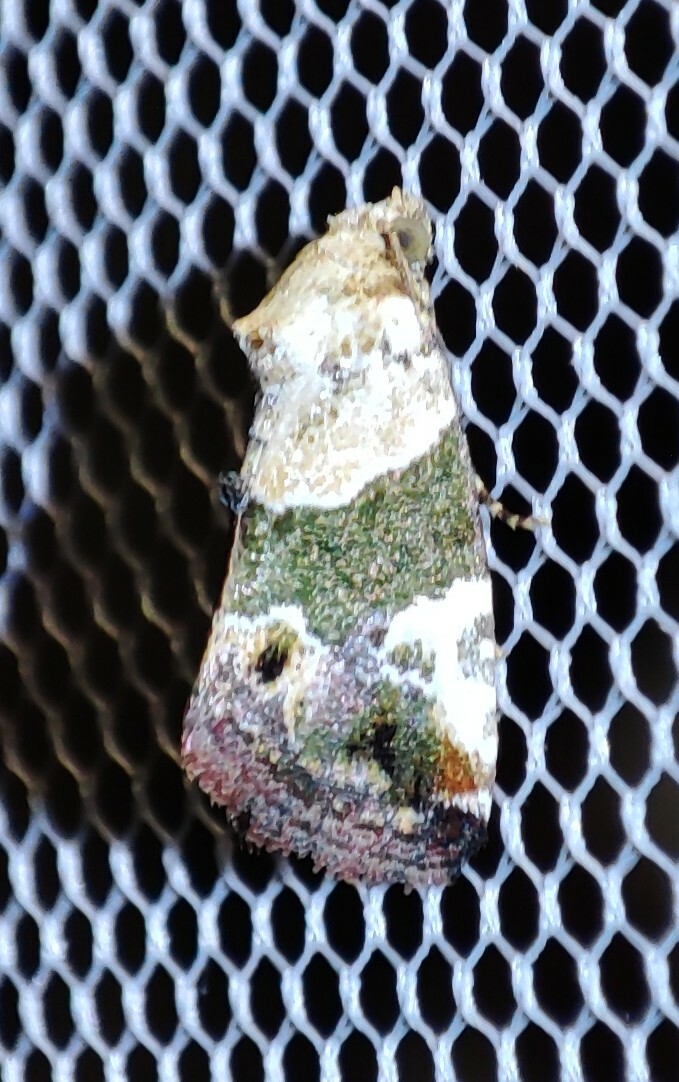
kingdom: Animalia
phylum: Arthropoda
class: Insecta
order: Lepidoptera
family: Noctuidae
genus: Hypercodia
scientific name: Hypercodia wheeleri
